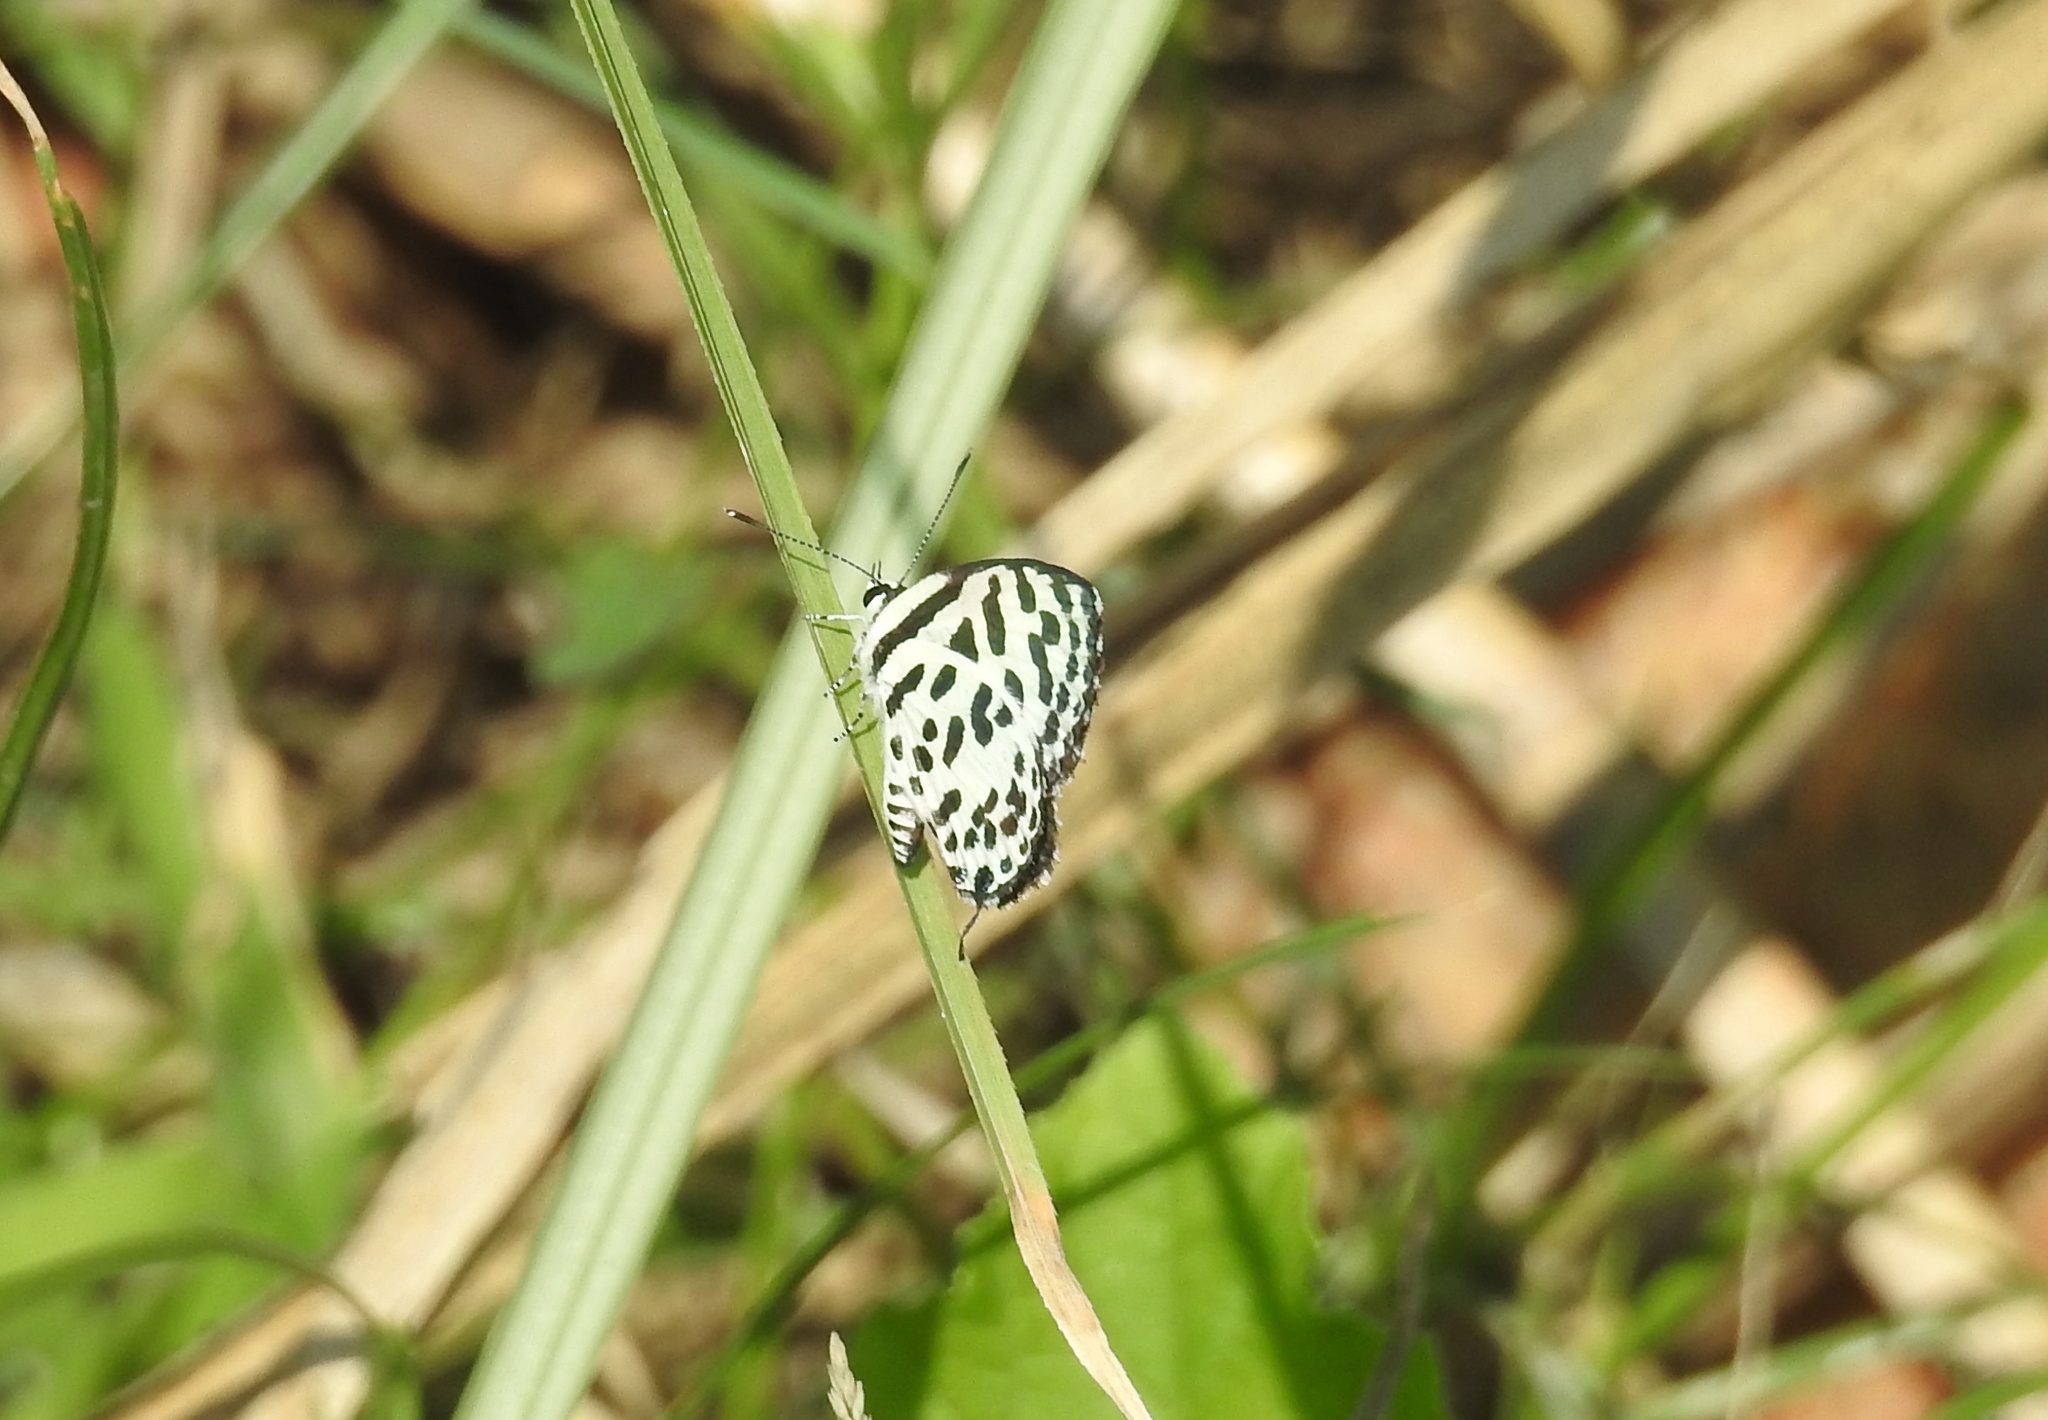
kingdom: Animalia
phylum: Arthropoda
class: Insecta
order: Lepidoptera
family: Lycaenidae
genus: Castalius
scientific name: Castalius rosimon
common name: Common pierrot
